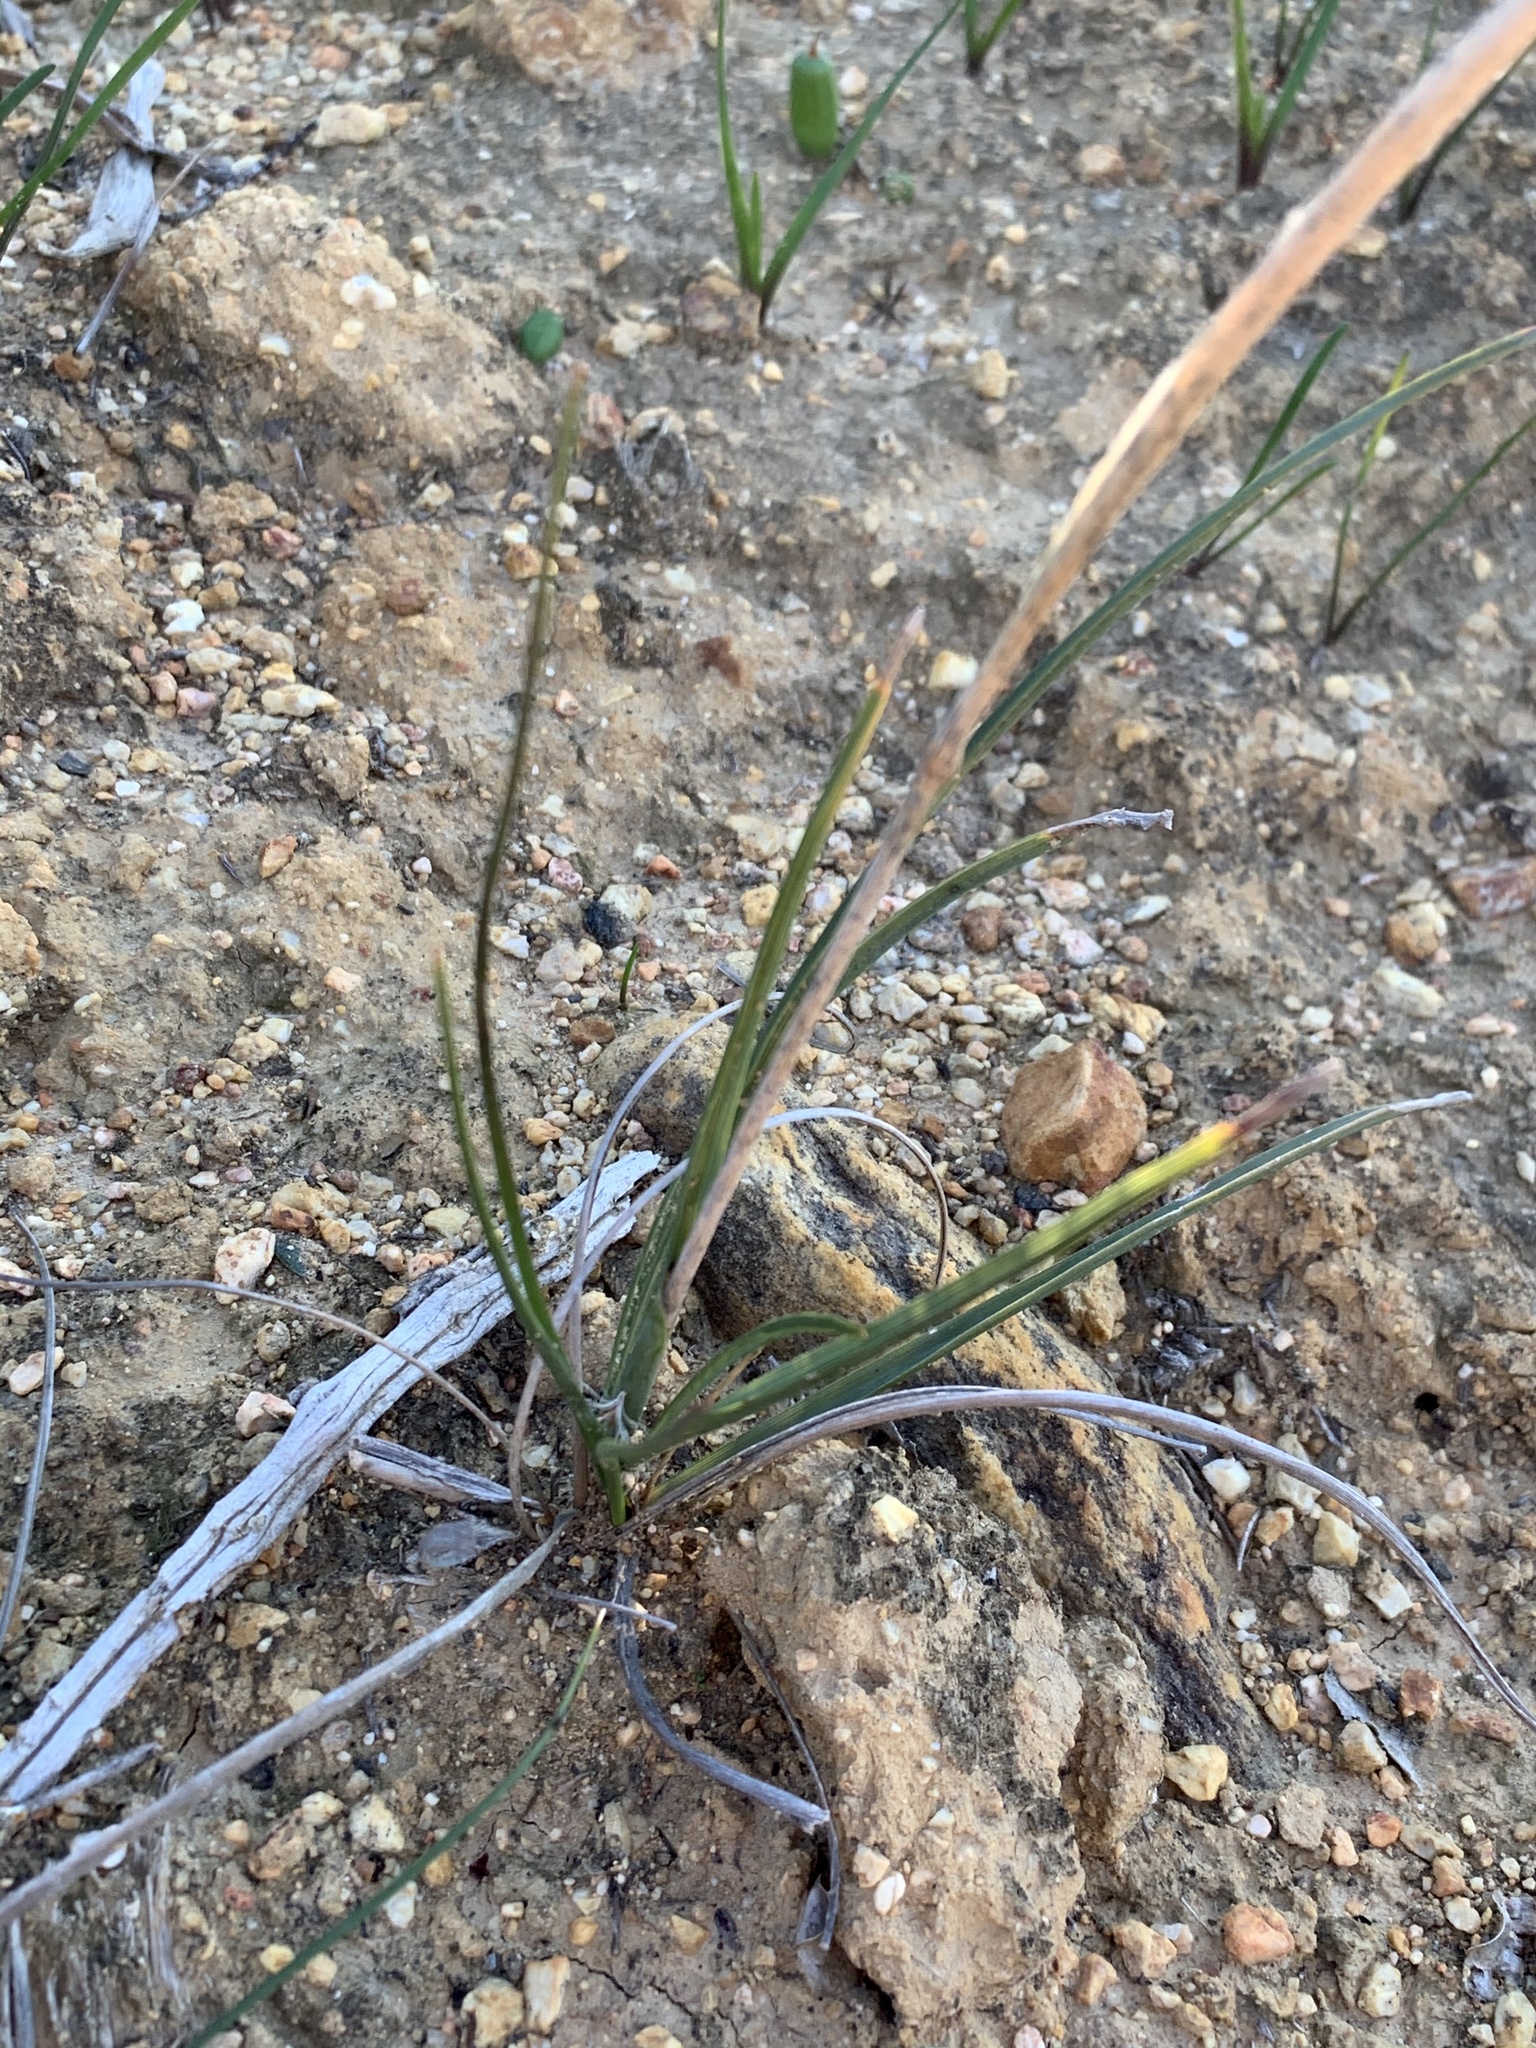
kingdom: Plantae
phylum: Tracheophyta
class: Liliopsida
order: Poales
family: Poaceae
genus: Geochloa
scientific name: Geochloa rufa
